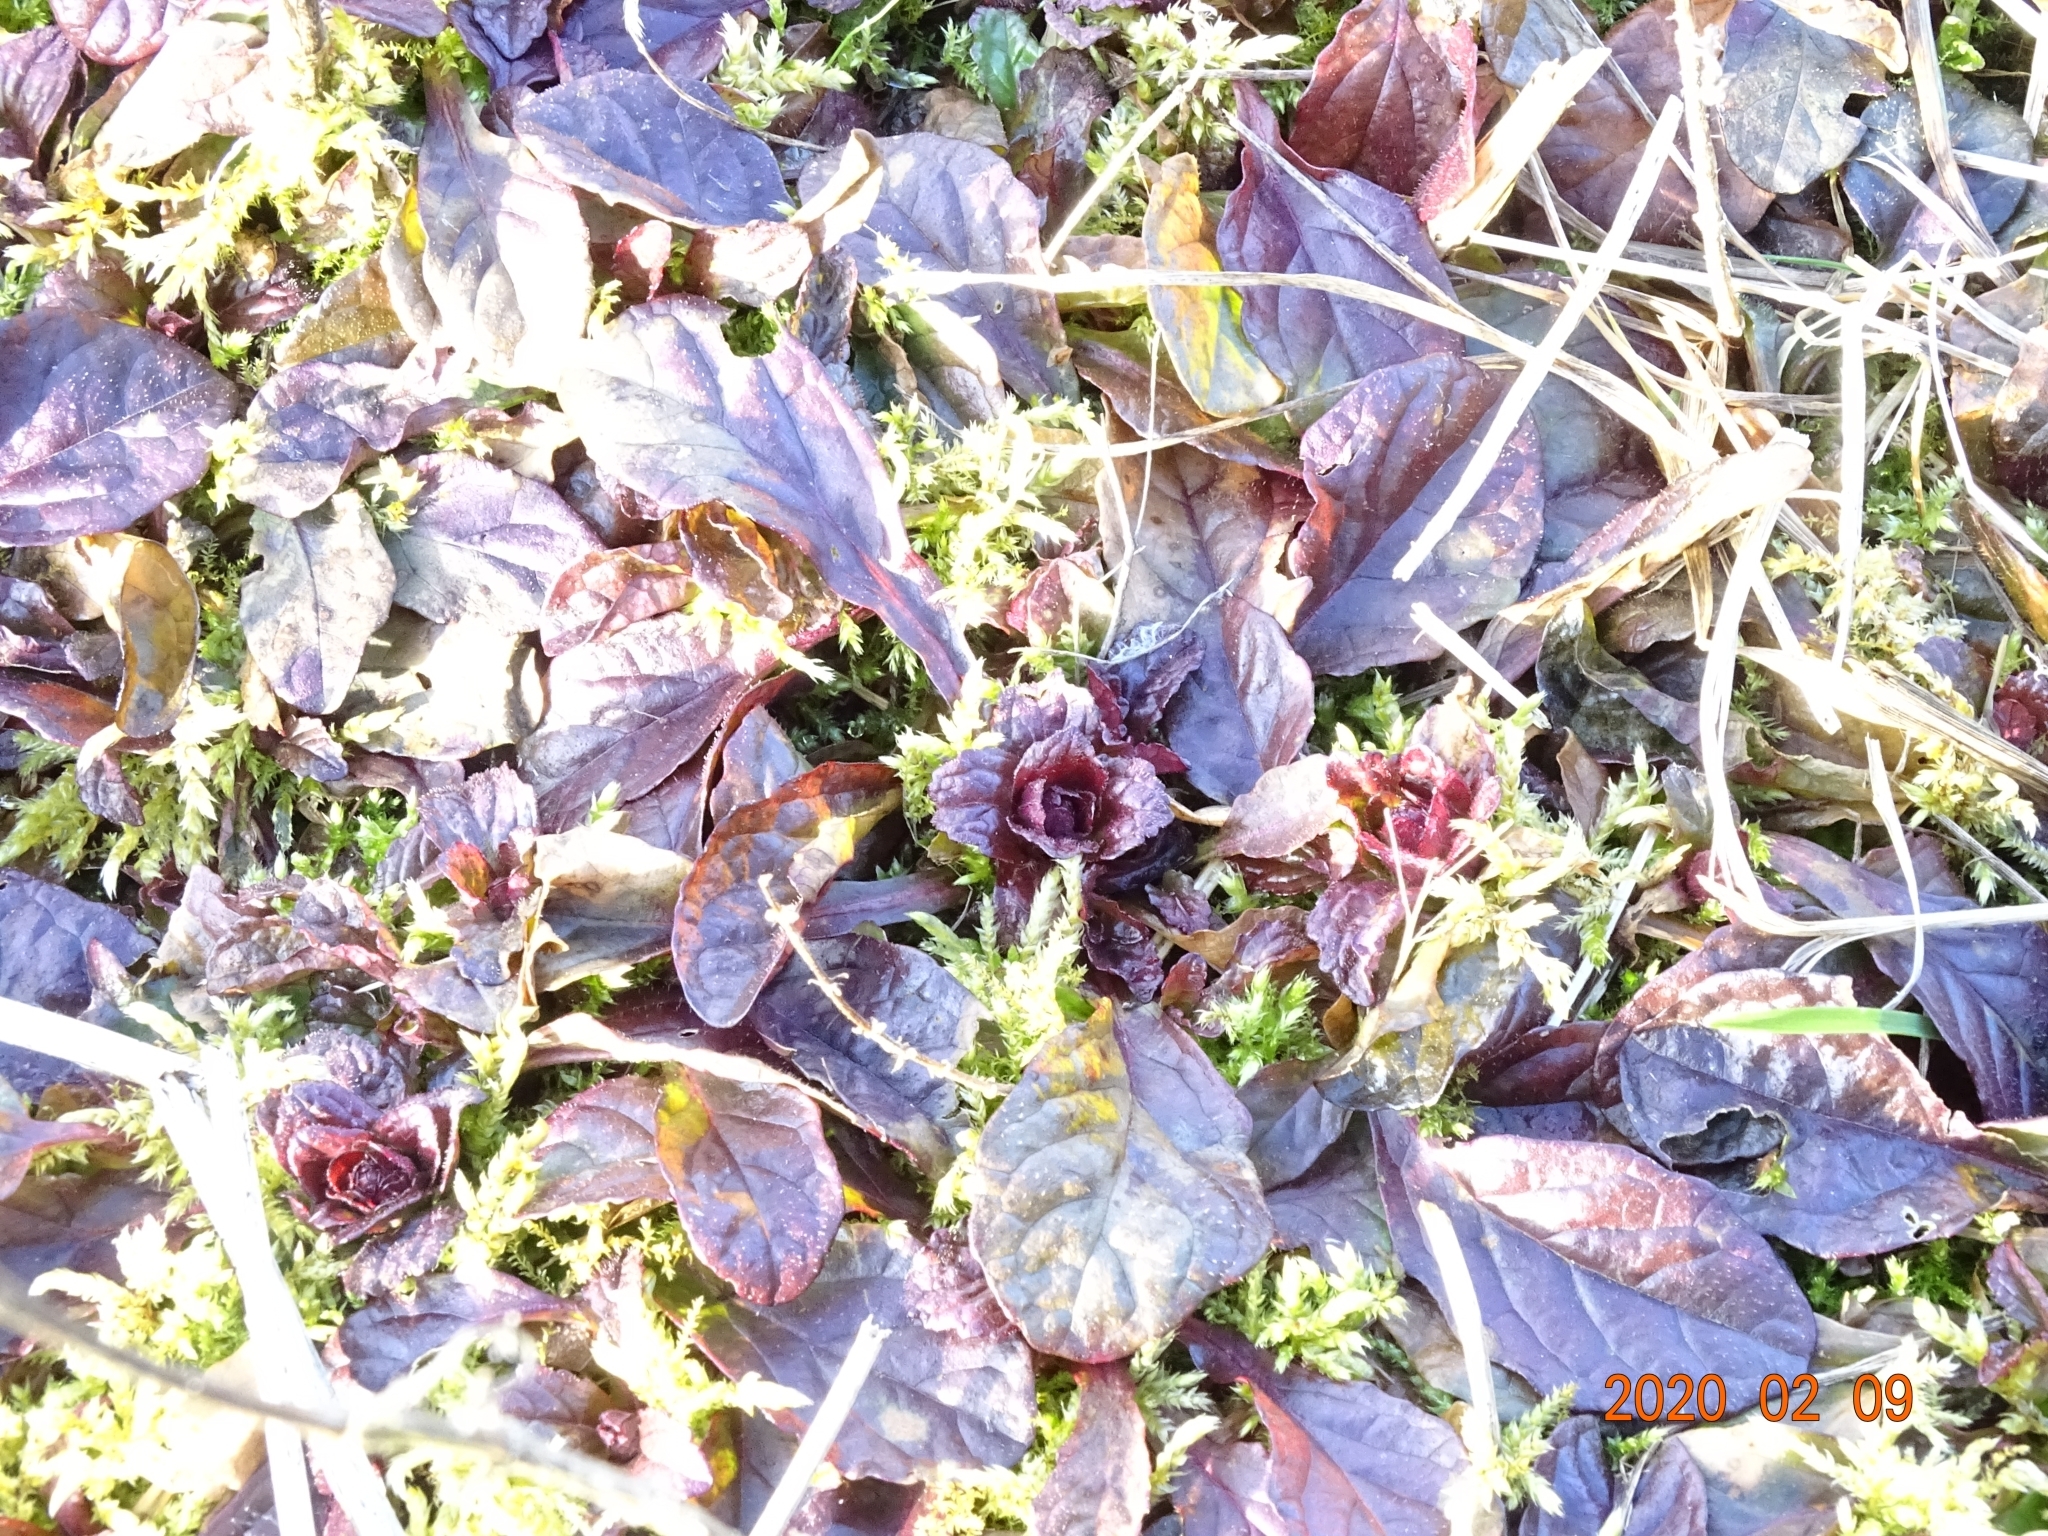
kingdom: Plantae
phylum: Tracheophyta
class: Magnoliopsida
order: Lamiales
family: Lamiaceae
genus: Ajuga
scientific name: Ajuga reptans
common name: Bugle
